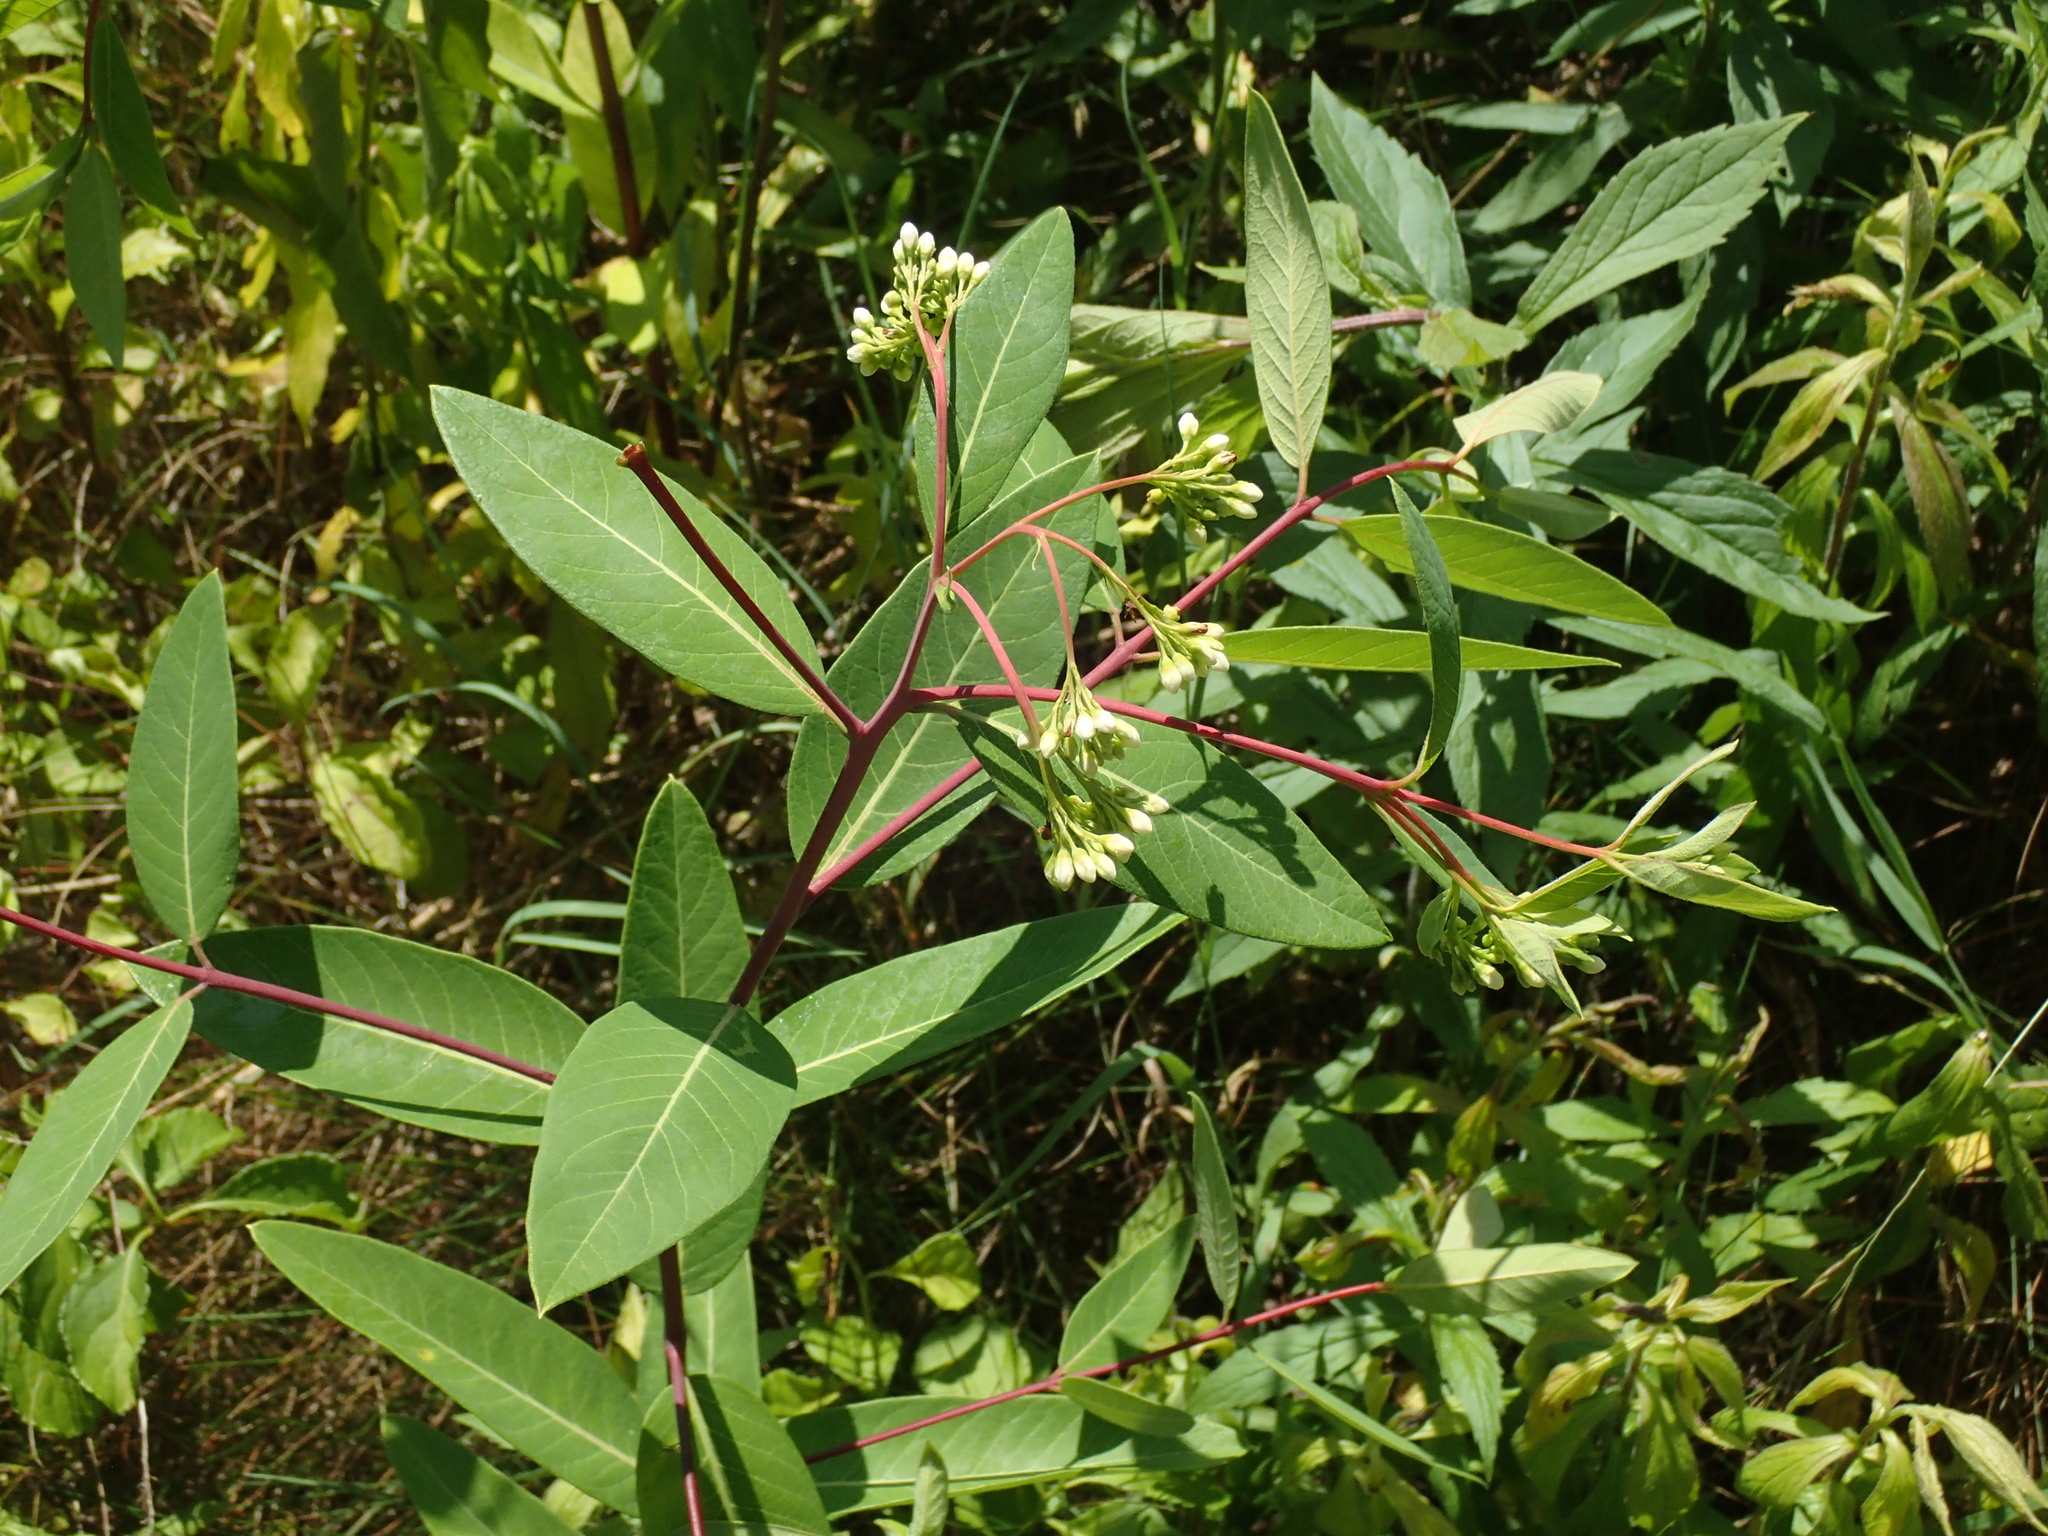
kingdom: Plantae
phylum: Tracheophyta
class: Magnoliopsida
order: Gentianales
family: Apocynaceae
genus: Apocynum
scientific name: Apocynum cannabinum
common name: Hemp dogbane
